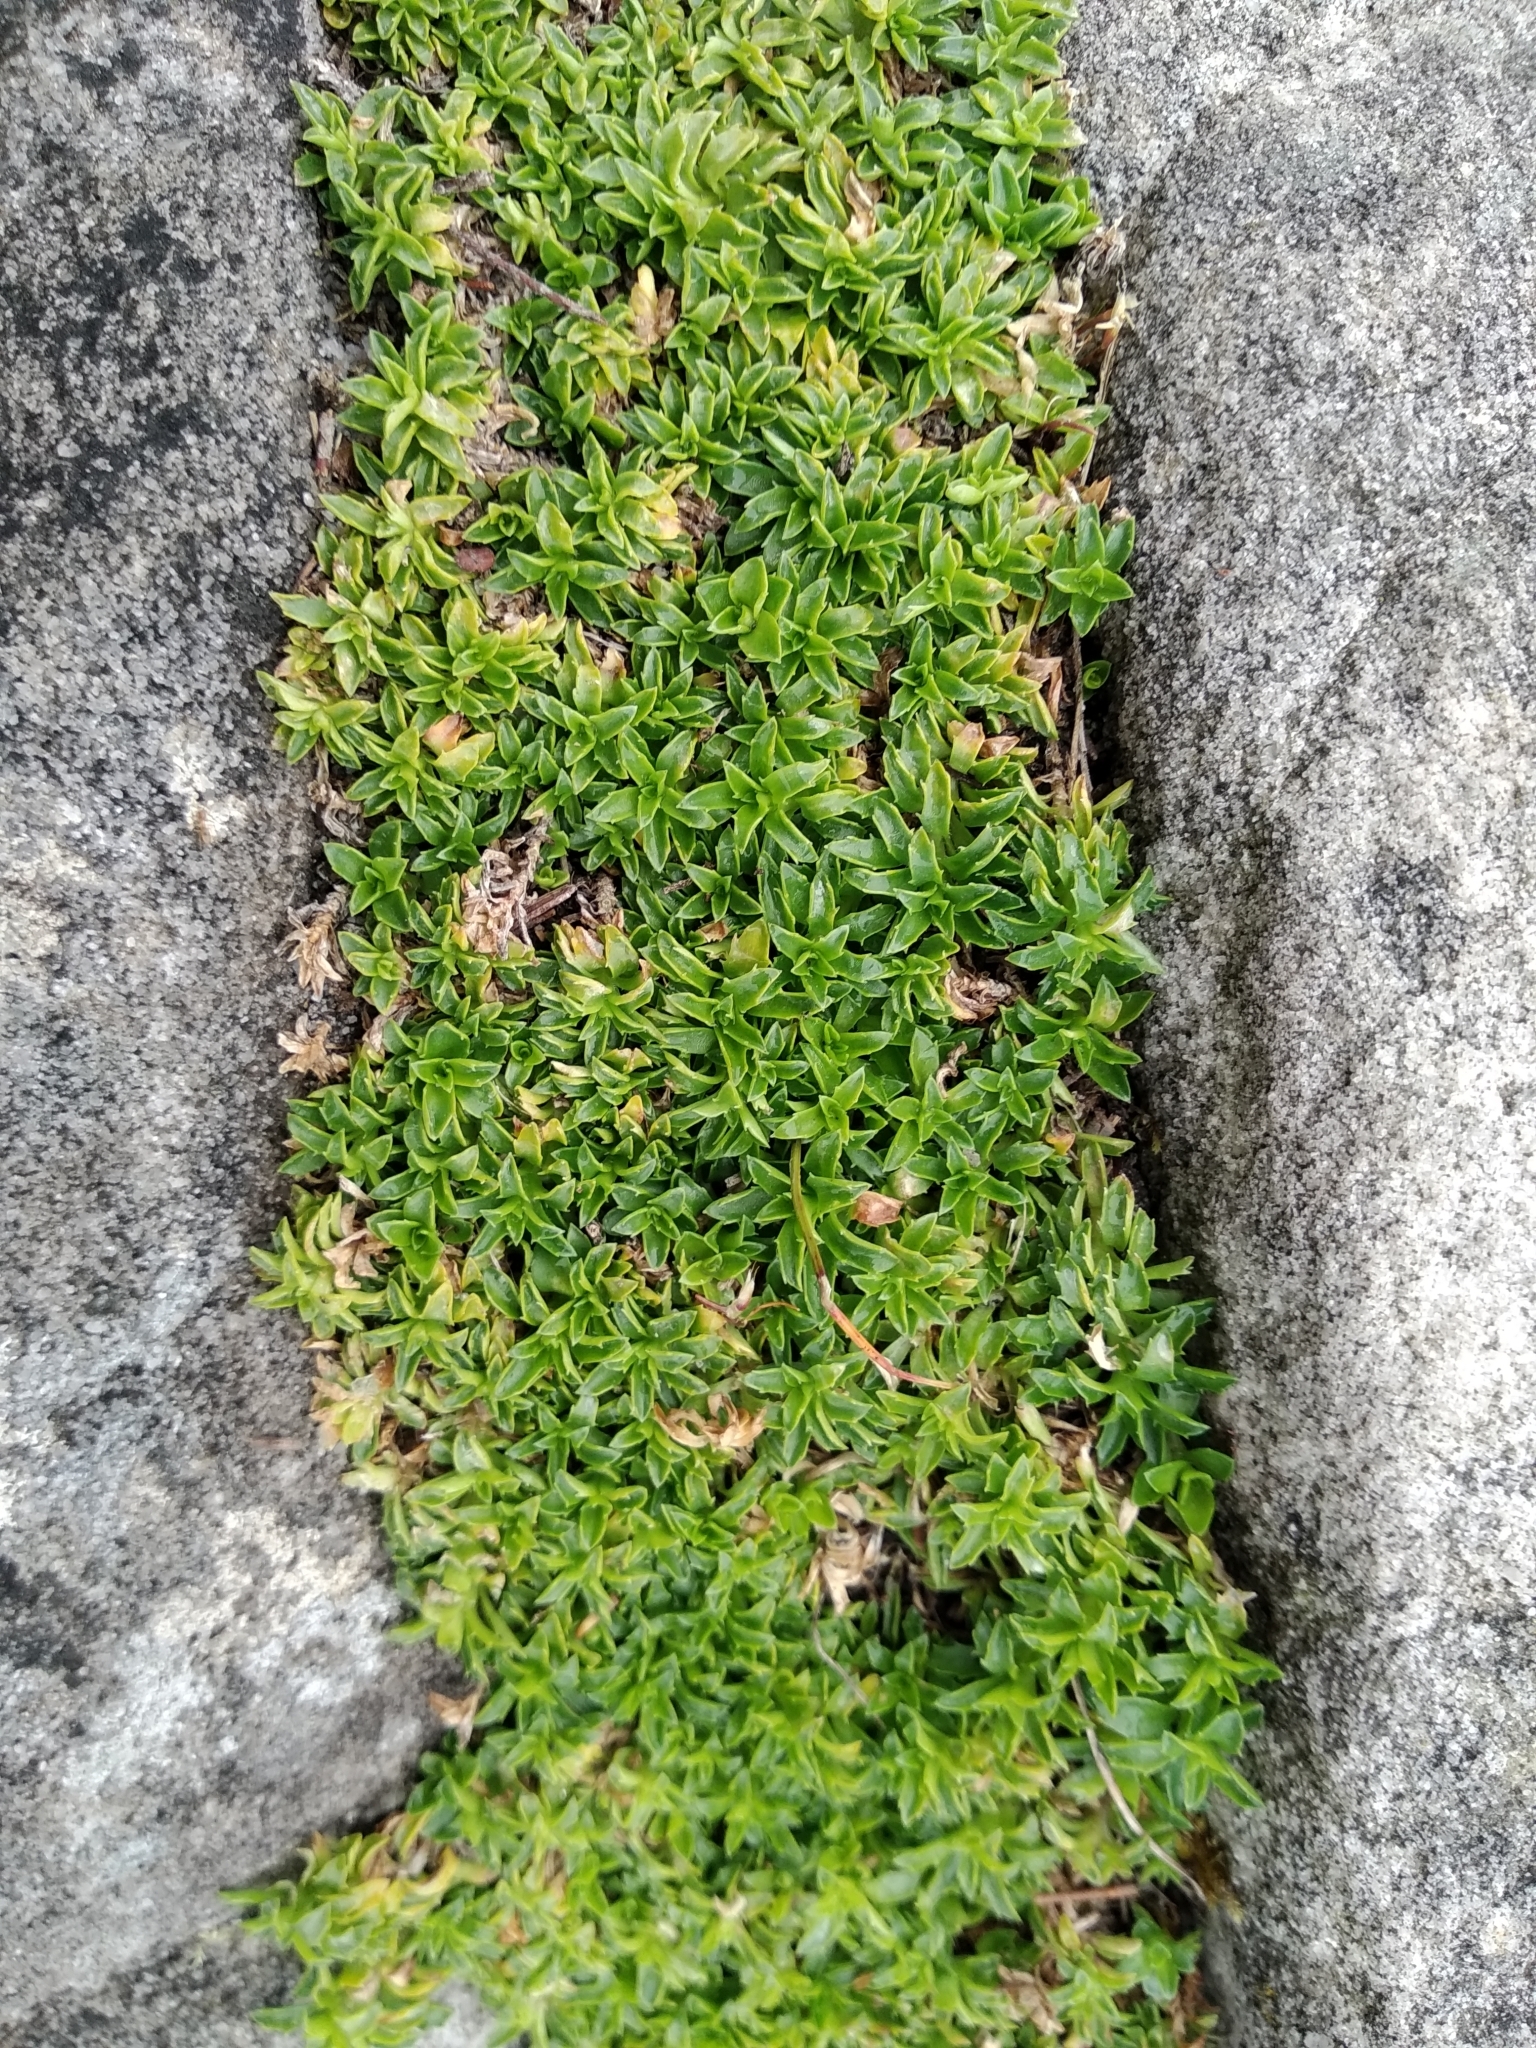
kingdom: Plantae
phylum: Tracheophyta
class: Magnoliopsida
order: Asterales
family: Campanulaceae
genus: Roella
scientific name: Roella muscosa
